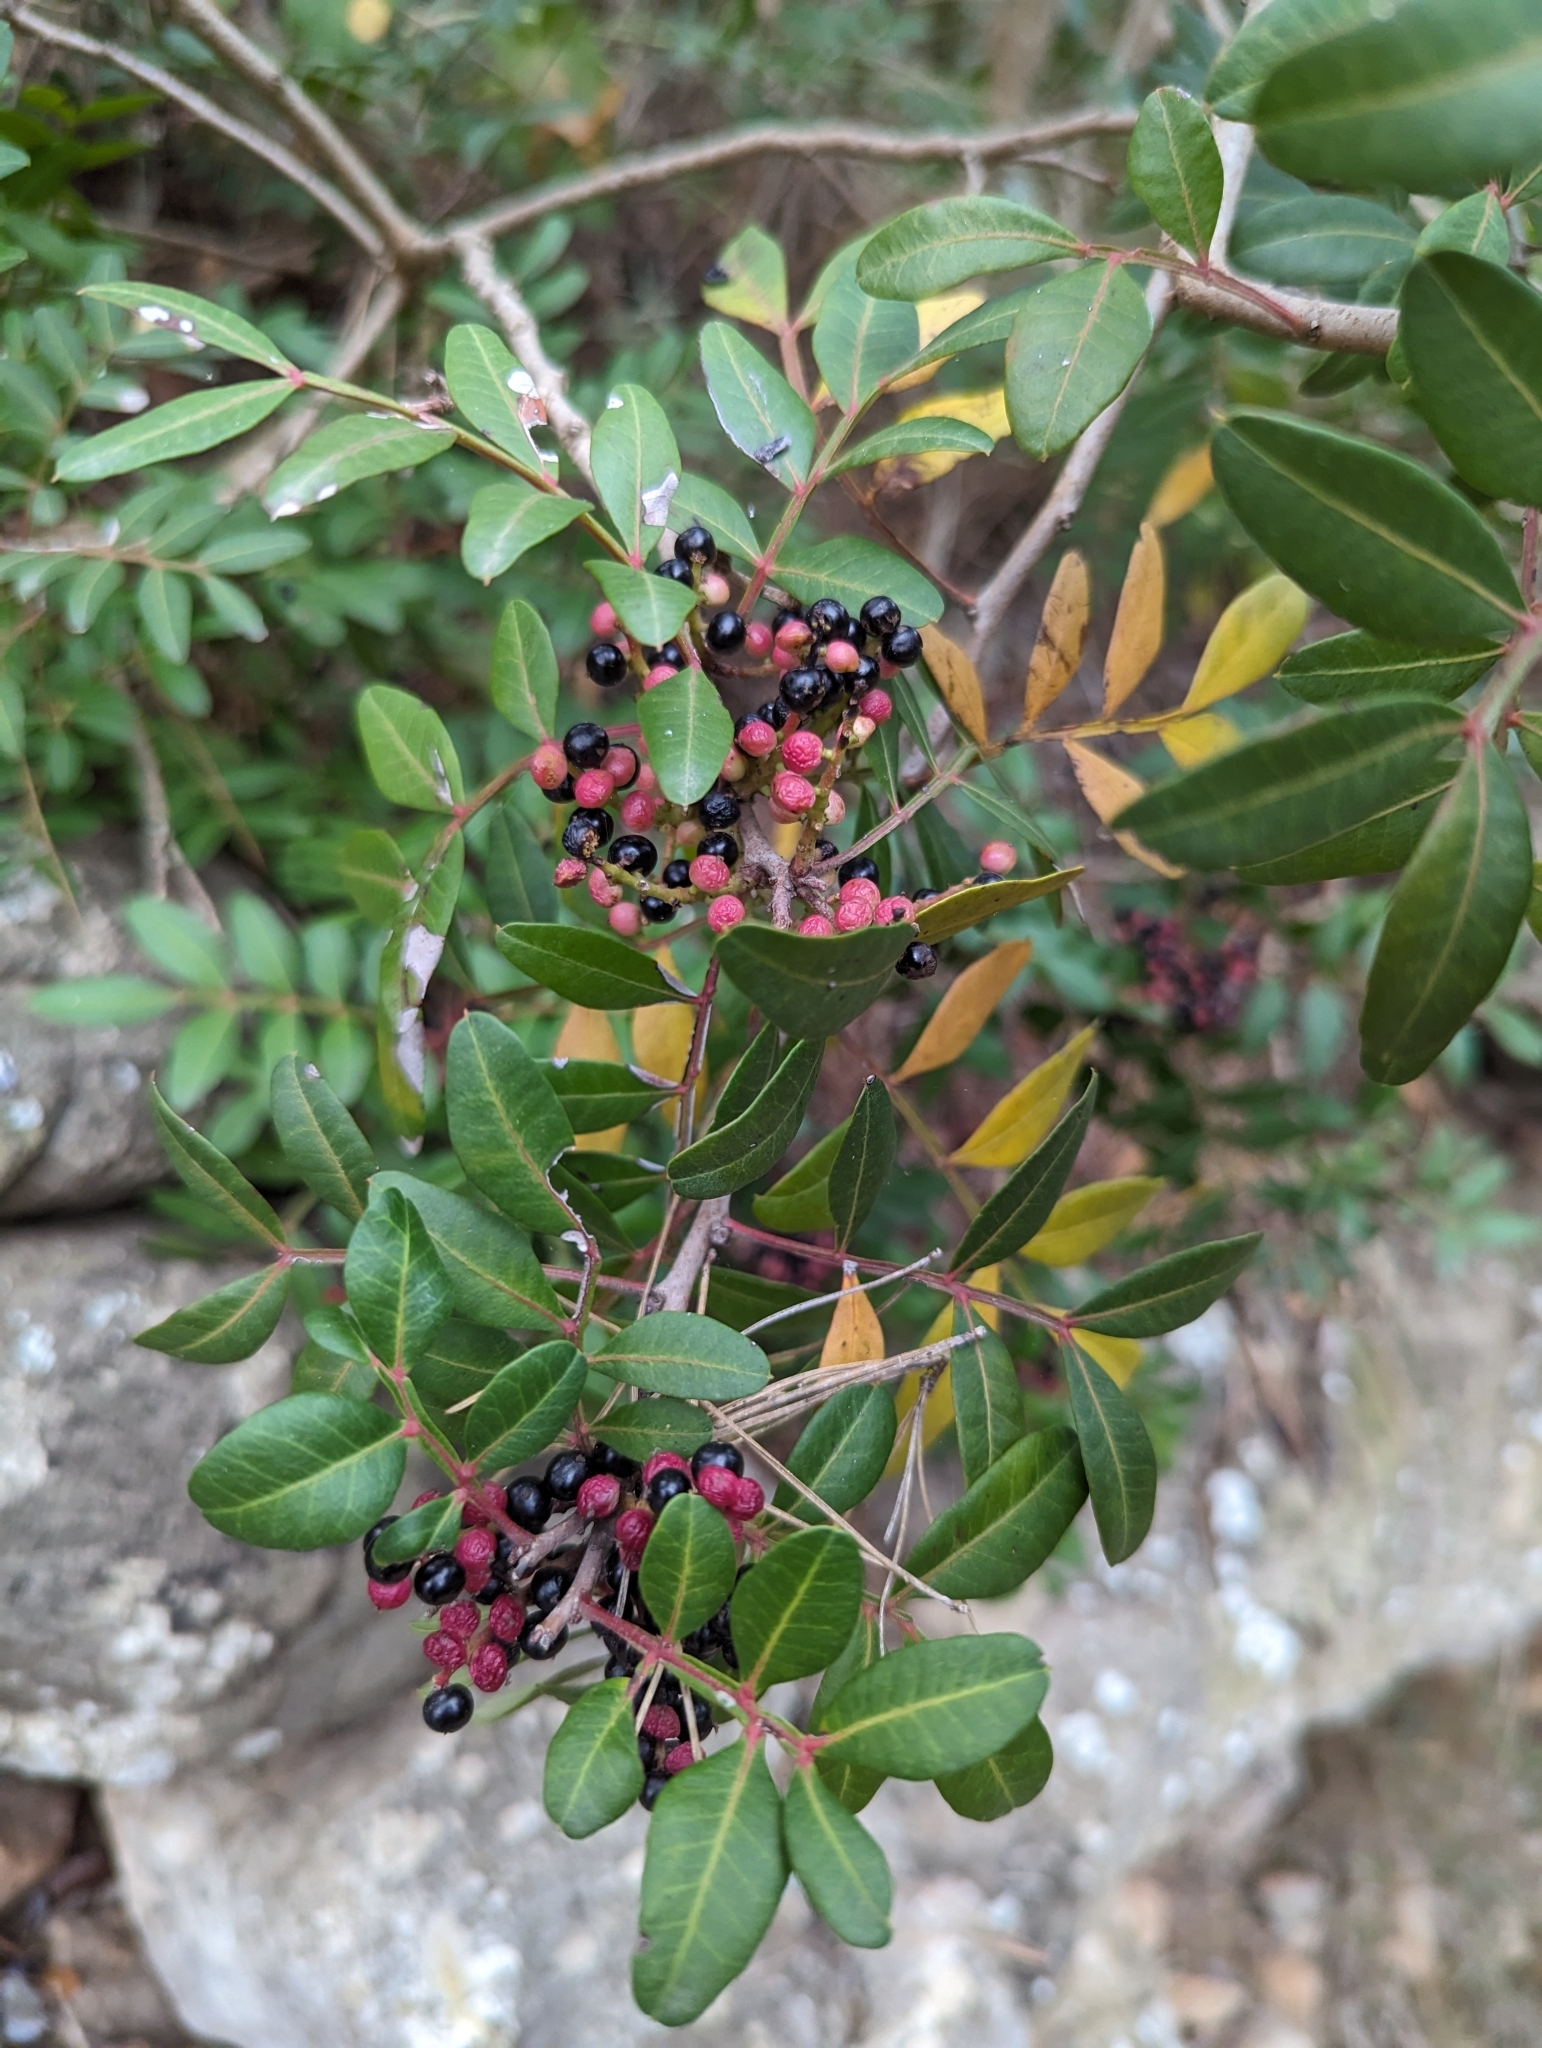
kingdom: Plantae
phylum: Tracheophyta
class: Magnoliopsida
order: Sapindales
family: Anacardiaceae
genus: Pistacia
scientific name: Pistacia lentiscus
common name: Lentisk
